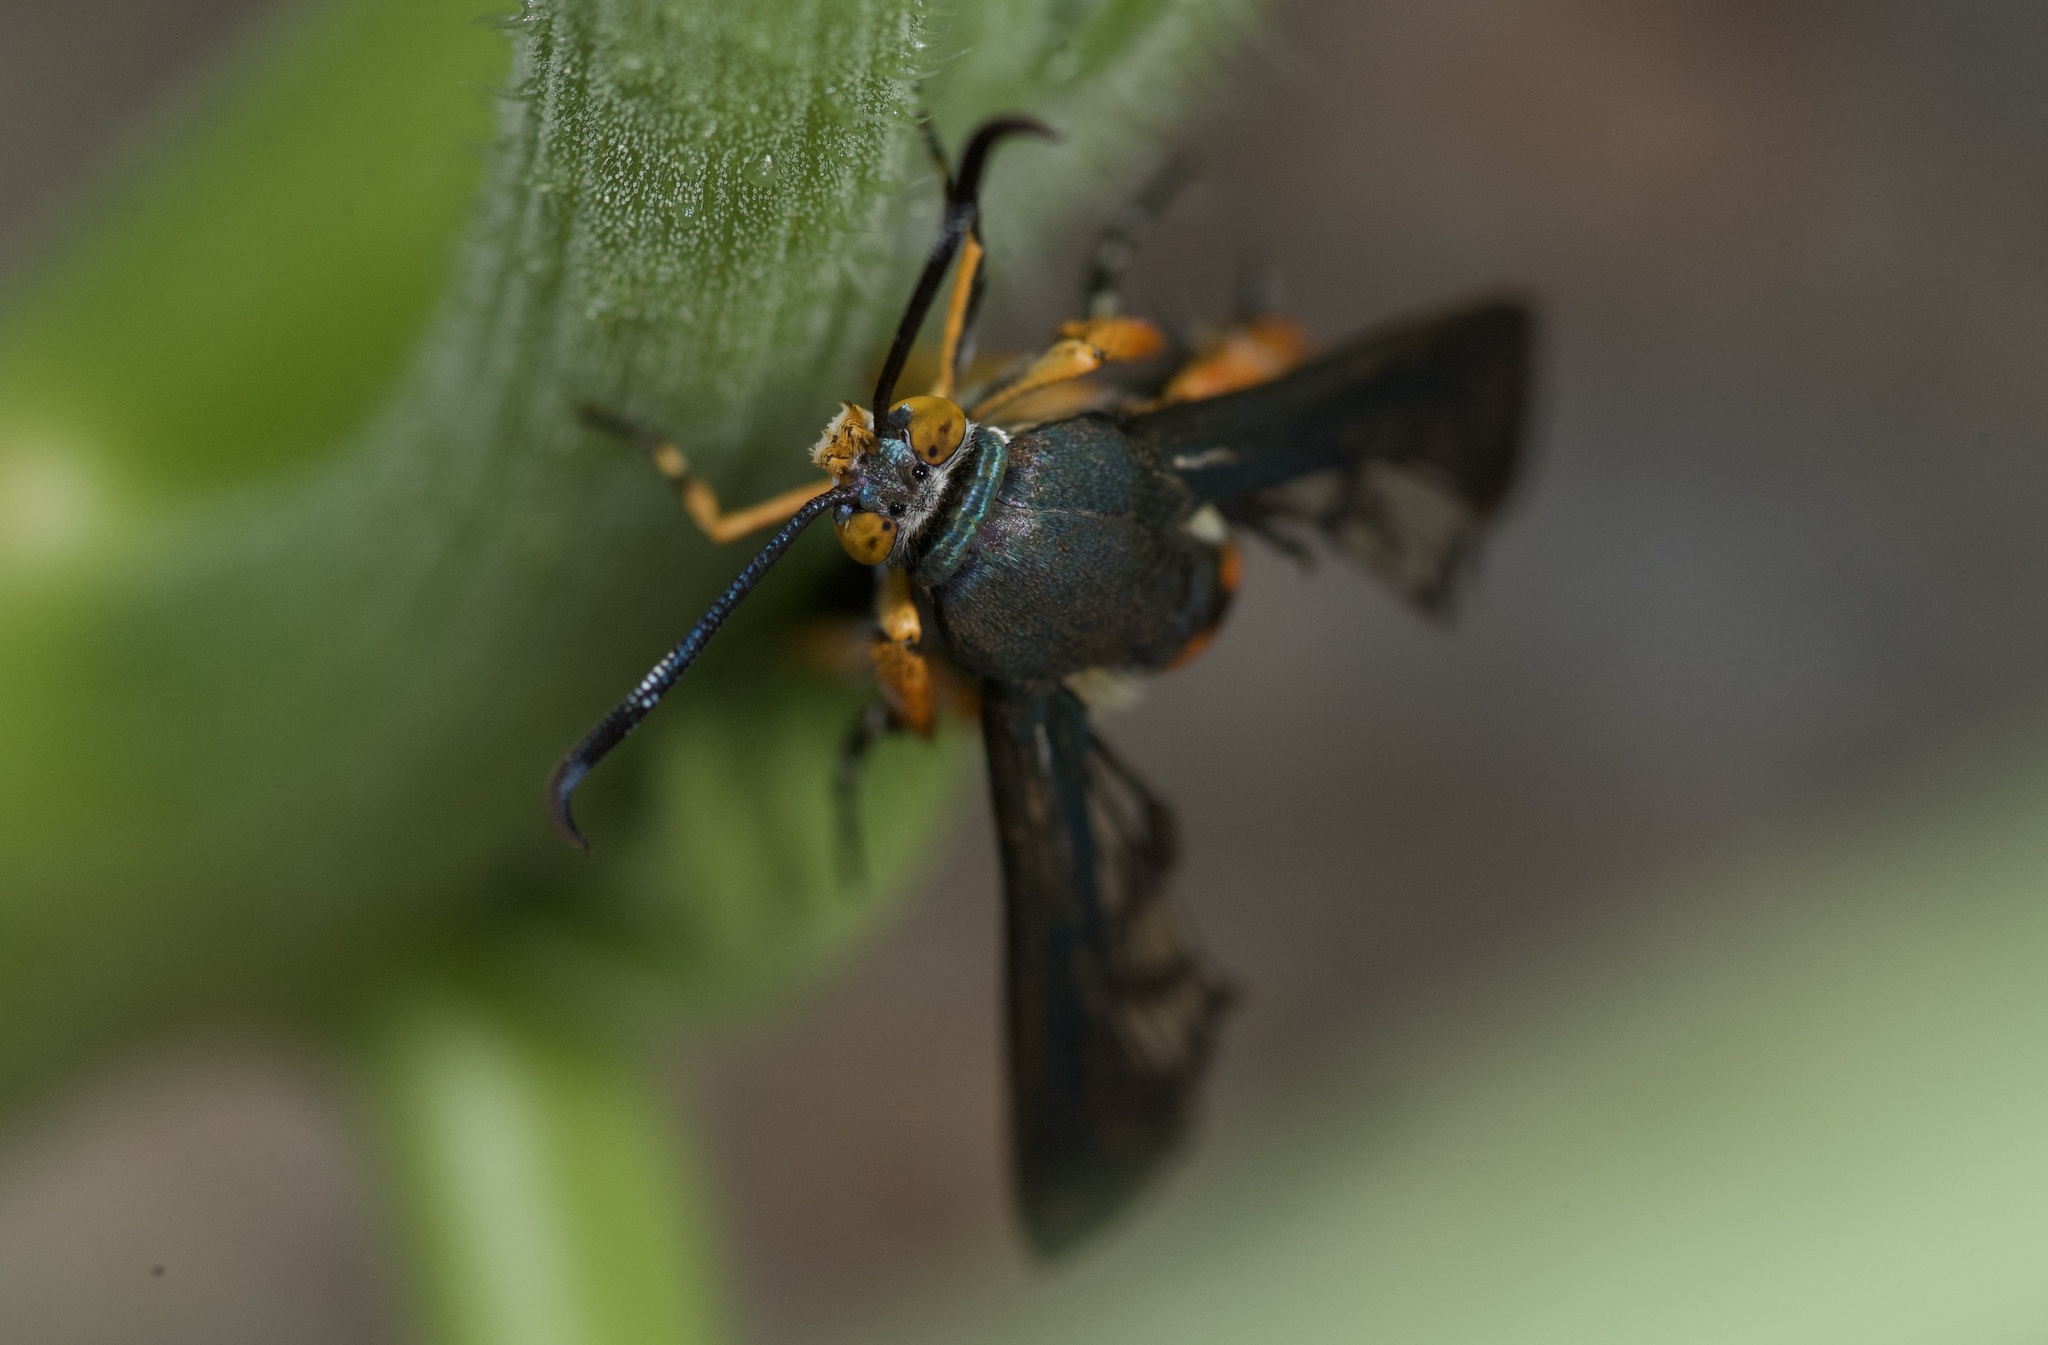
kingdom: Animalia
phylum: Arthropoda
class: Insecta
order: Lepidoptera
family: Sesiidae
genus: Eichlinia
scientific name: Eichlinia calabaza
